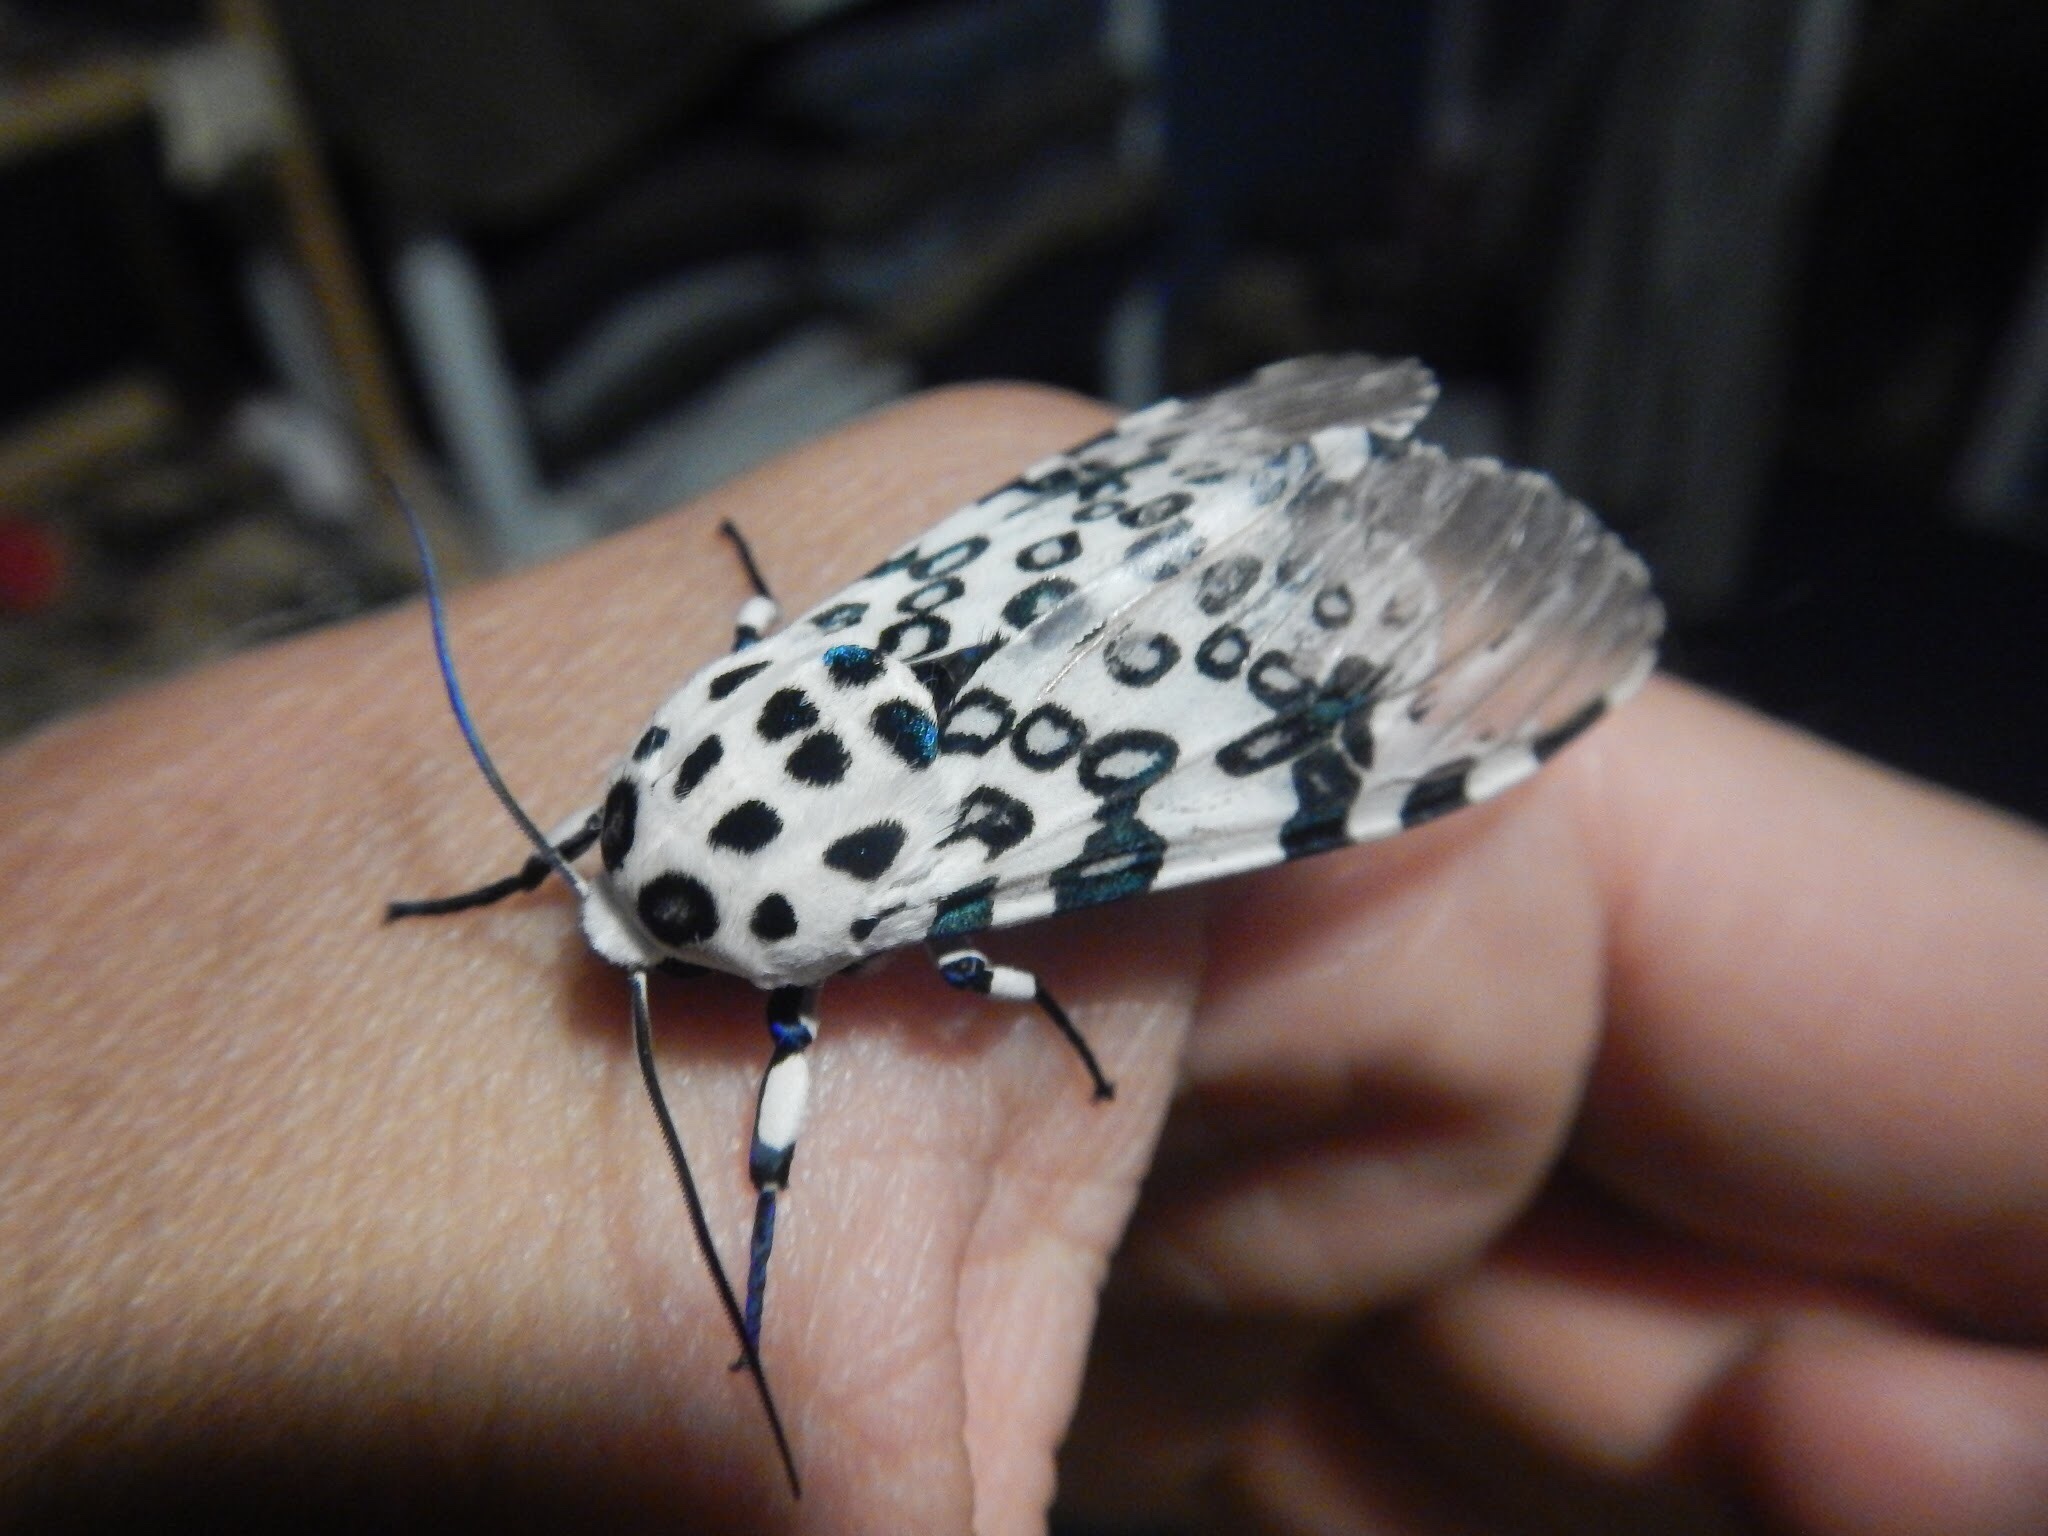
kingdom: Animalia
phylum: Arthropoda
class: Insecta
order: Lepidoptera
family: Erebidae
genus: Hypercompe
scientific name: Hypercompe scribonia
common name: Giant leopard moth
